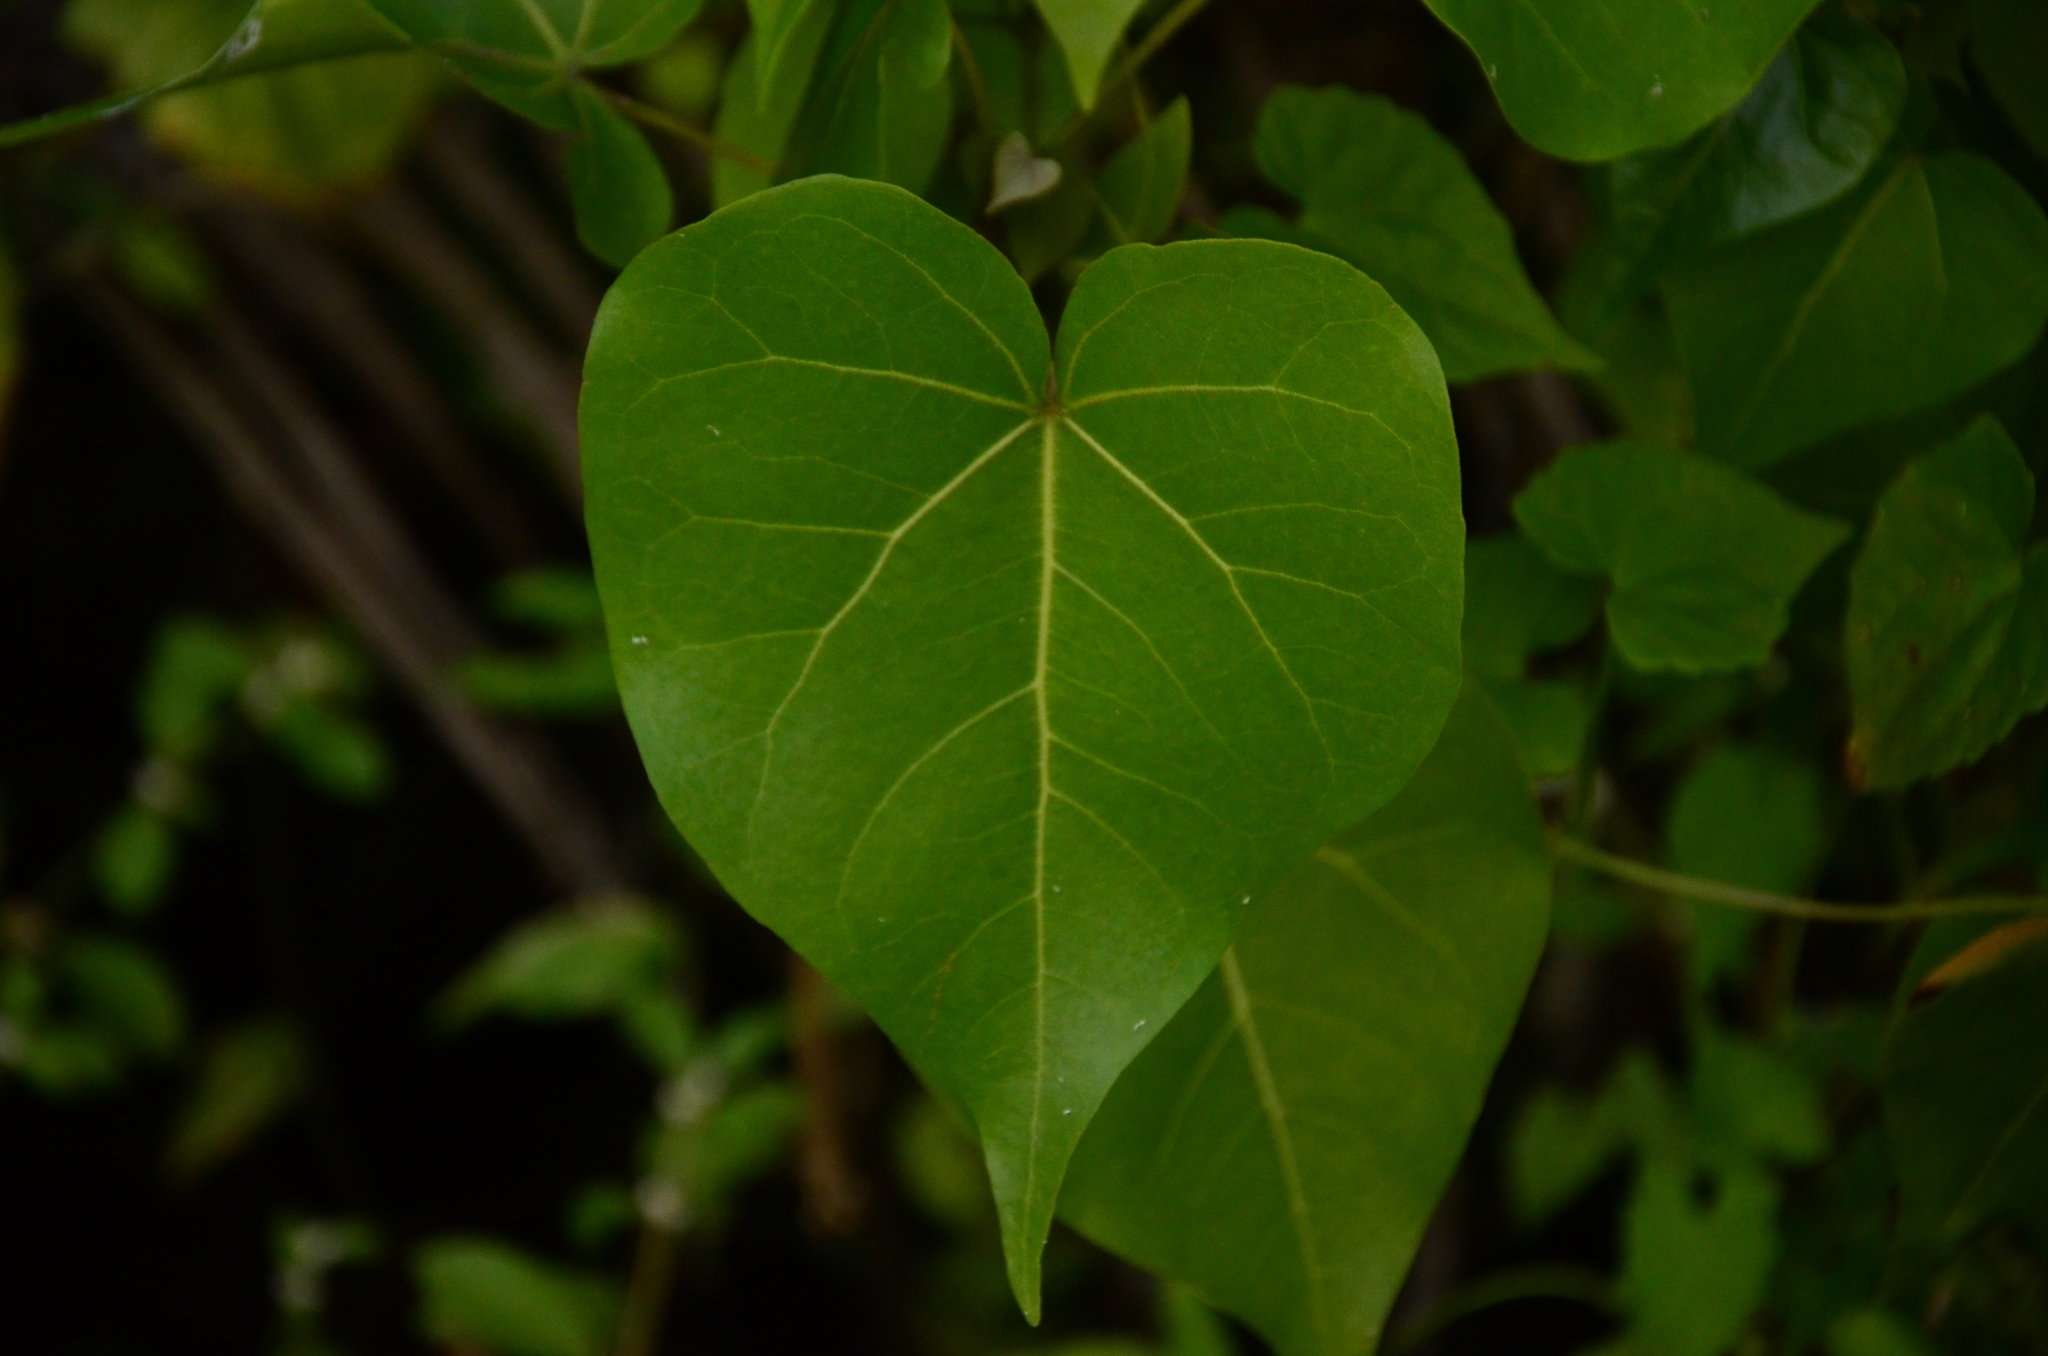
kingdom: Plantae
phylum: Tracheophyta
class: Magnoliopsida
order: Malvales
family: Malvaceae
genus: Thespesia
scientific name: Thespesia populnea
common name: Seaside mahoe
